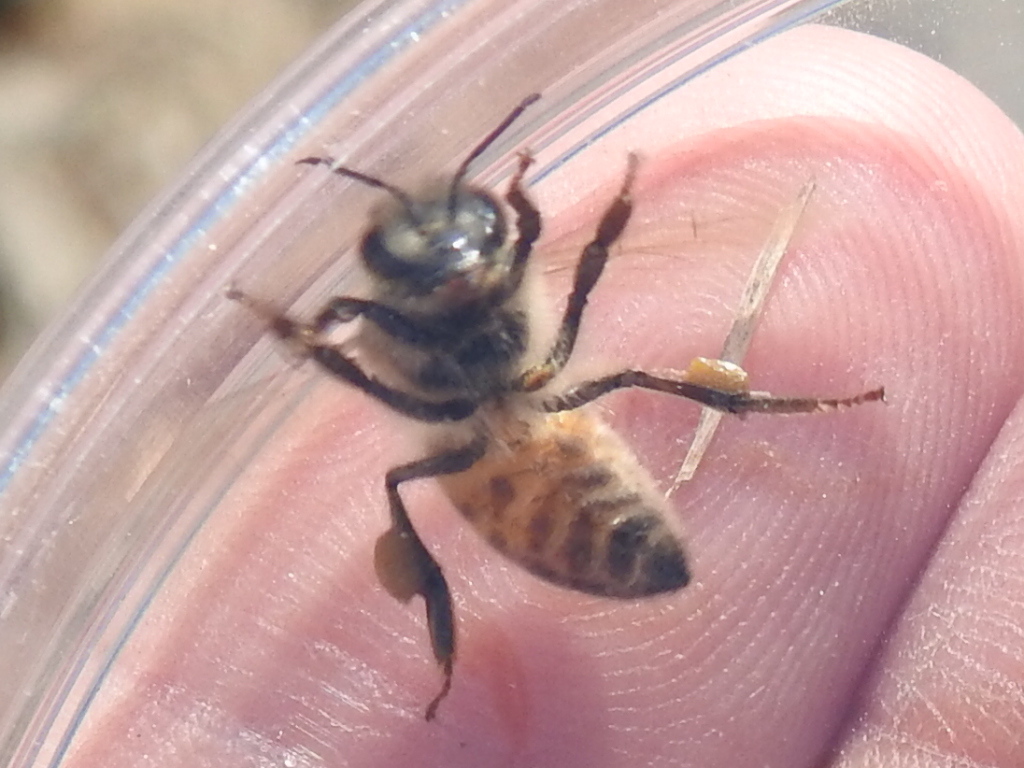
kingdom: Animalia
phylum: Arthropoda
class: Insecta
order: Hymenoptera
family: Apidae
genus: Apis
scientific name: Apis mellifera
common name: Honey bee
